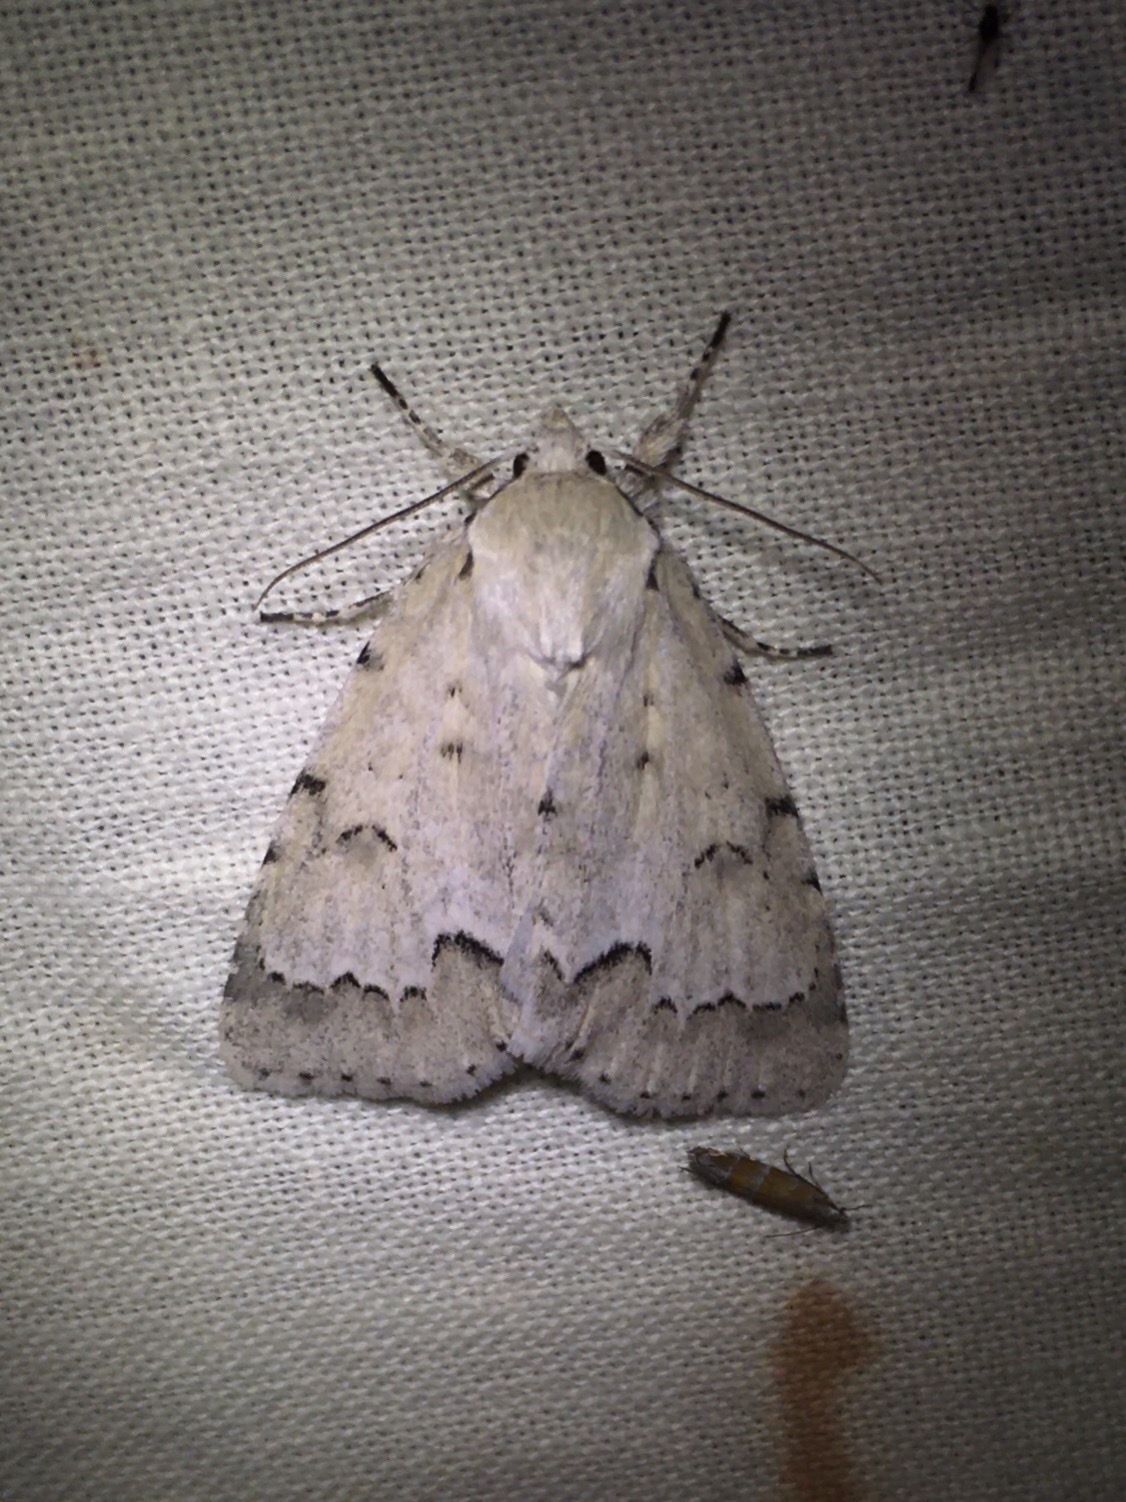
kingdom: Animalia
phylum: Arthropoda
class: Insecta
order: Lepidoptera
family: Noctuidae
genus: Acronicta
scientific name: Acronicta innotata
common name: Unmarked dagger
